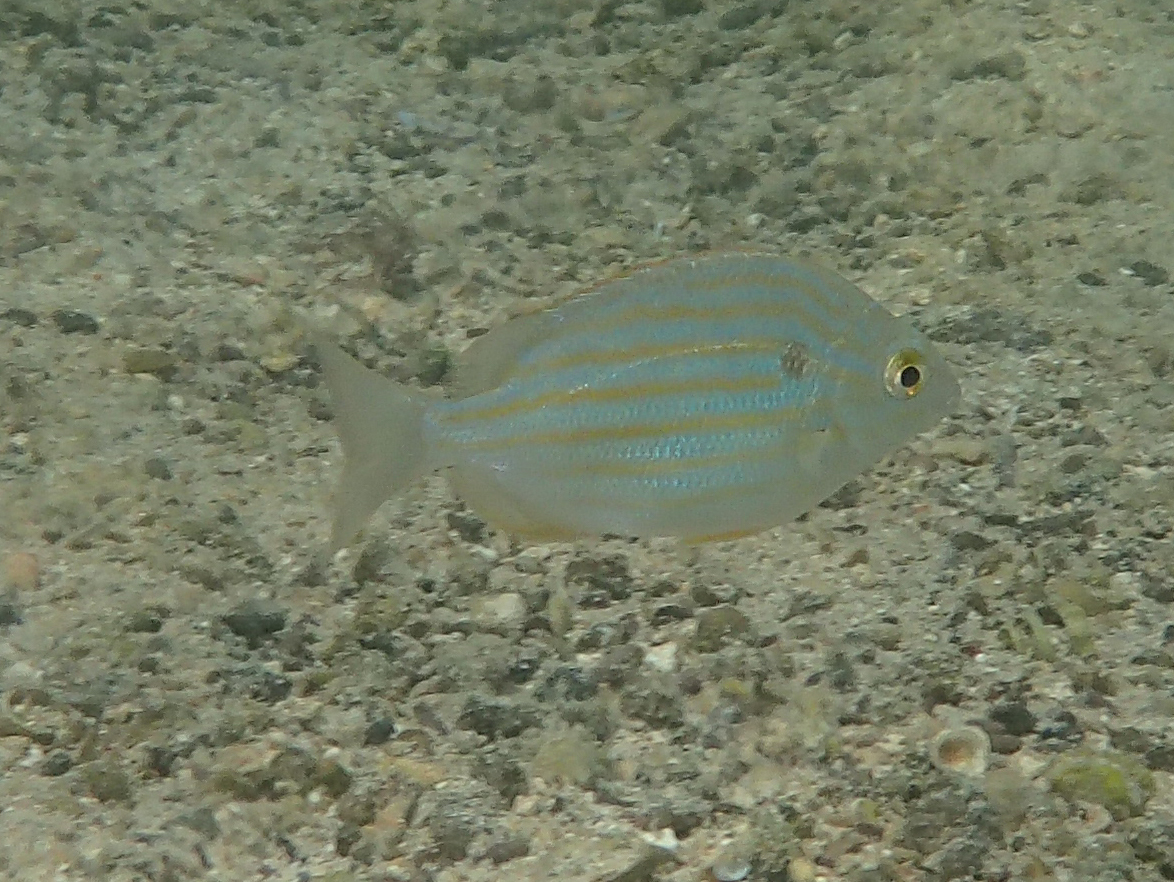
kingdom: Animalia
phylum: Chordata
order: Perciformes
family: Sparidae
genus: Archosargus
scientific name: Archosargus pourtalesii
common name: Blackspot porgy
